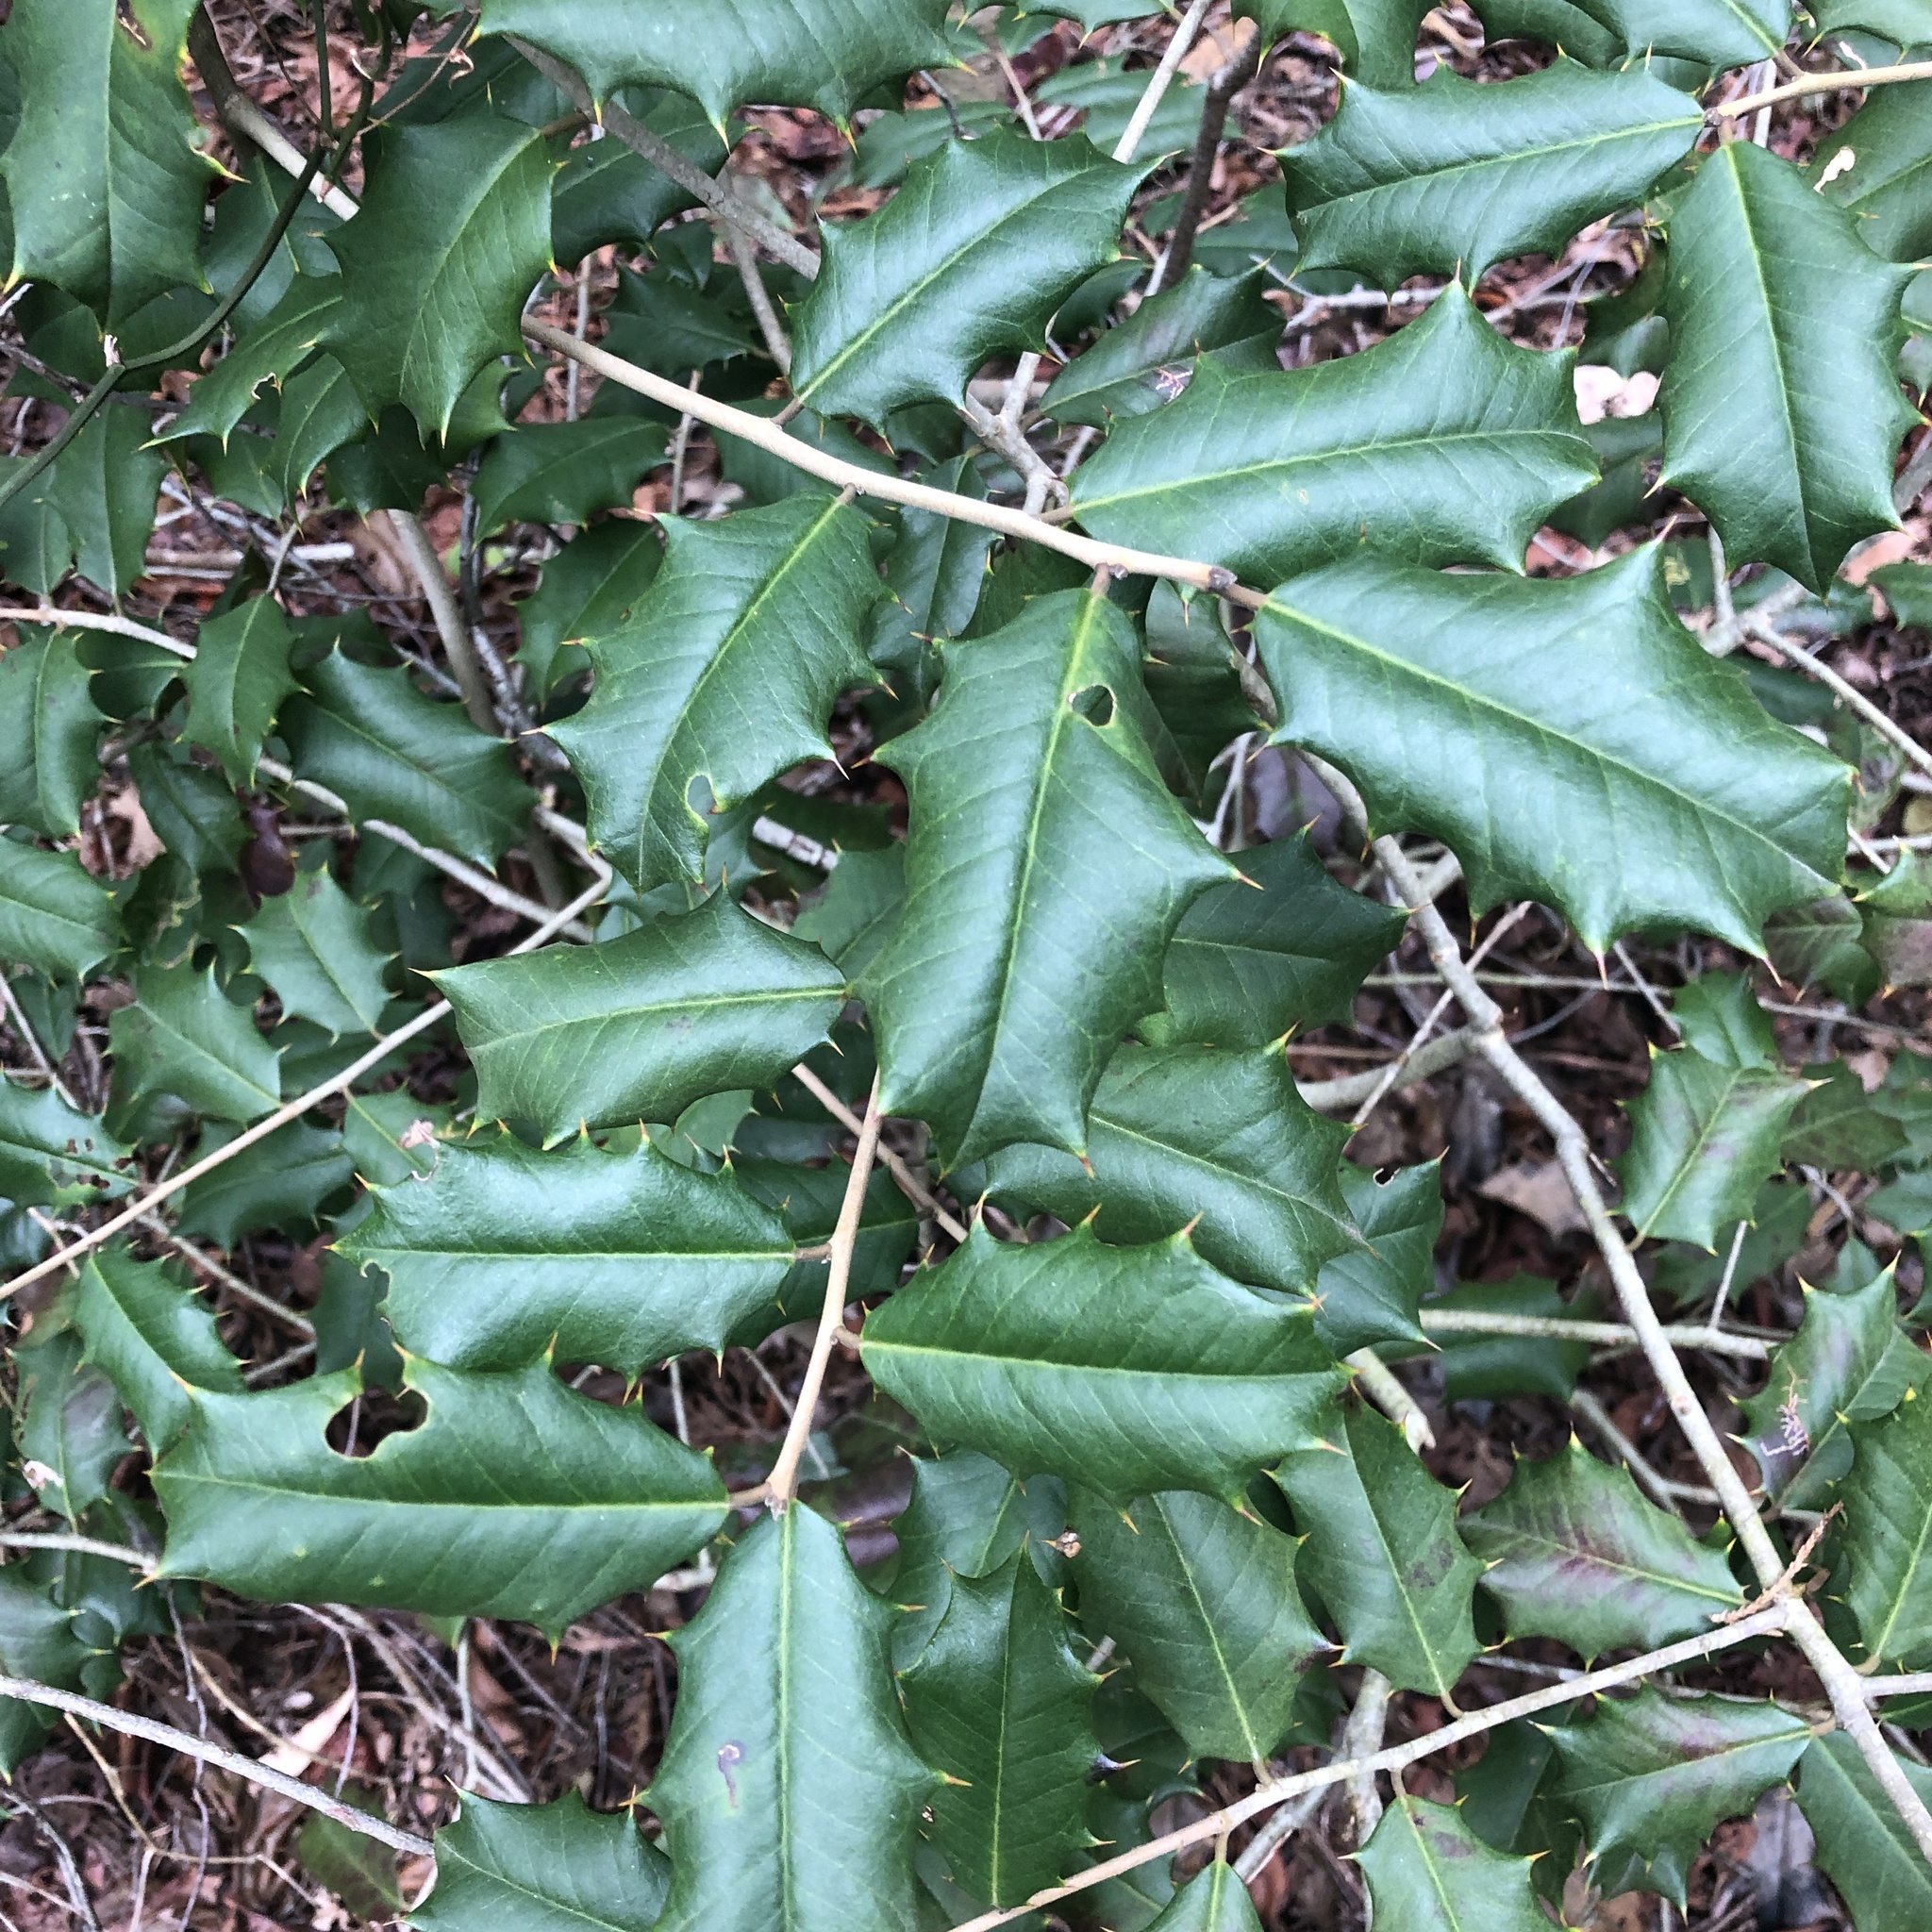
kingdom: Plantae
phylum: Tracheophyta
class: Magnoliopsida
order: Aquifoliales
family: Aquifoliaceae
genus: Ilex
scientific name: Ilex opaca
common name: American holly
